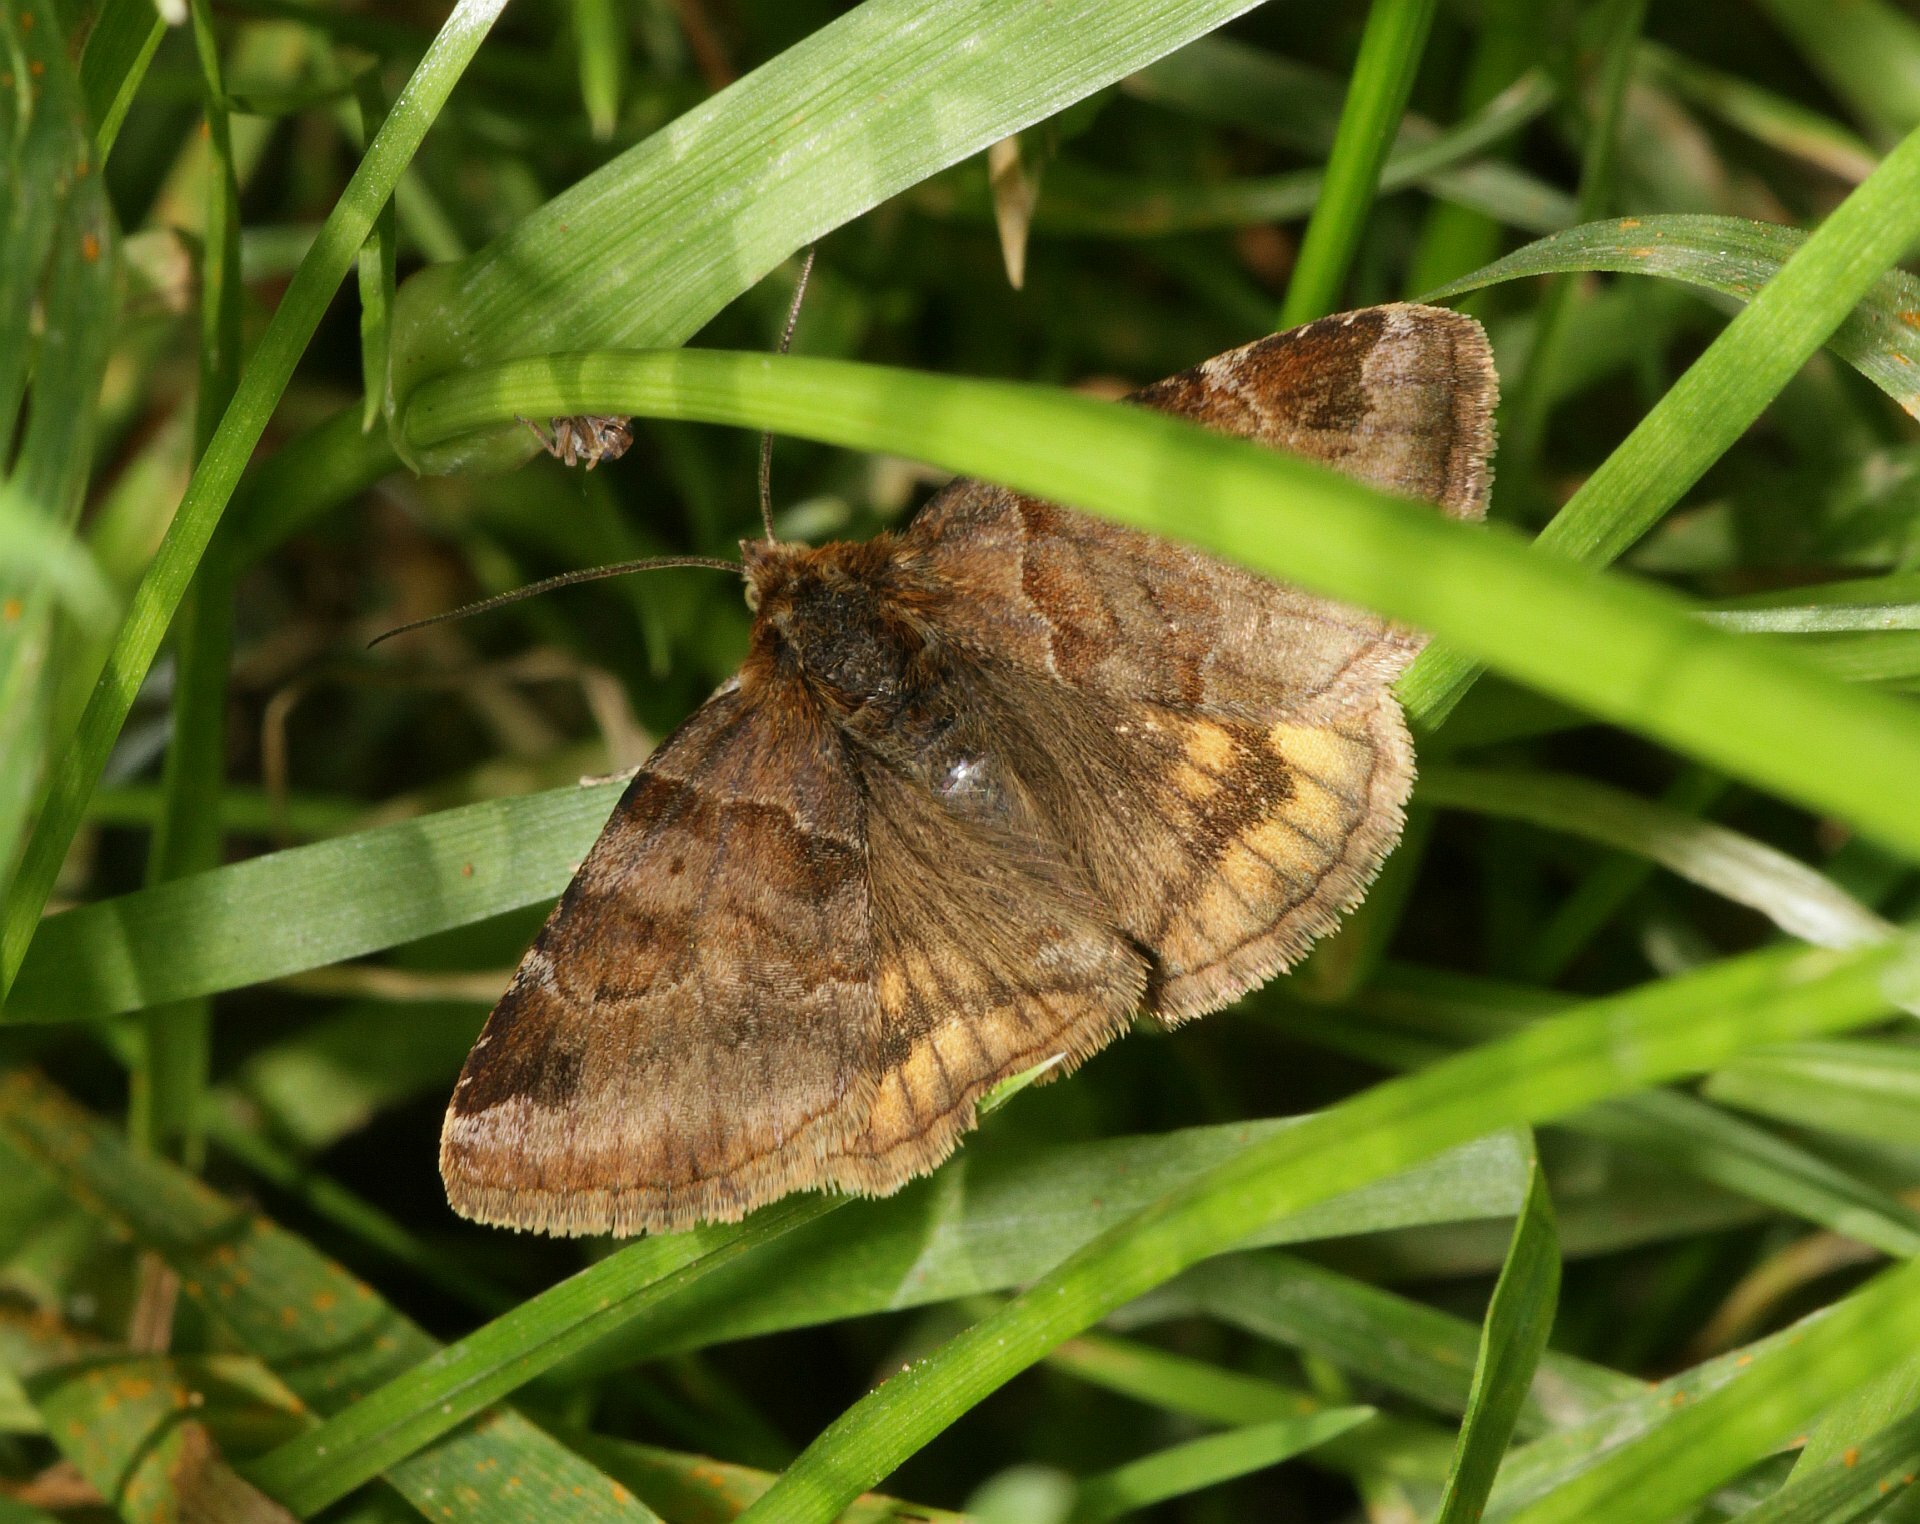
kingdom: Animalia
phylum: Arthropoda
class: Insecta
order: Lepidoptera
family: Erebidae
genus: Euclidia
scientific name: Euclidia glyphica
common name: Burnet companion
